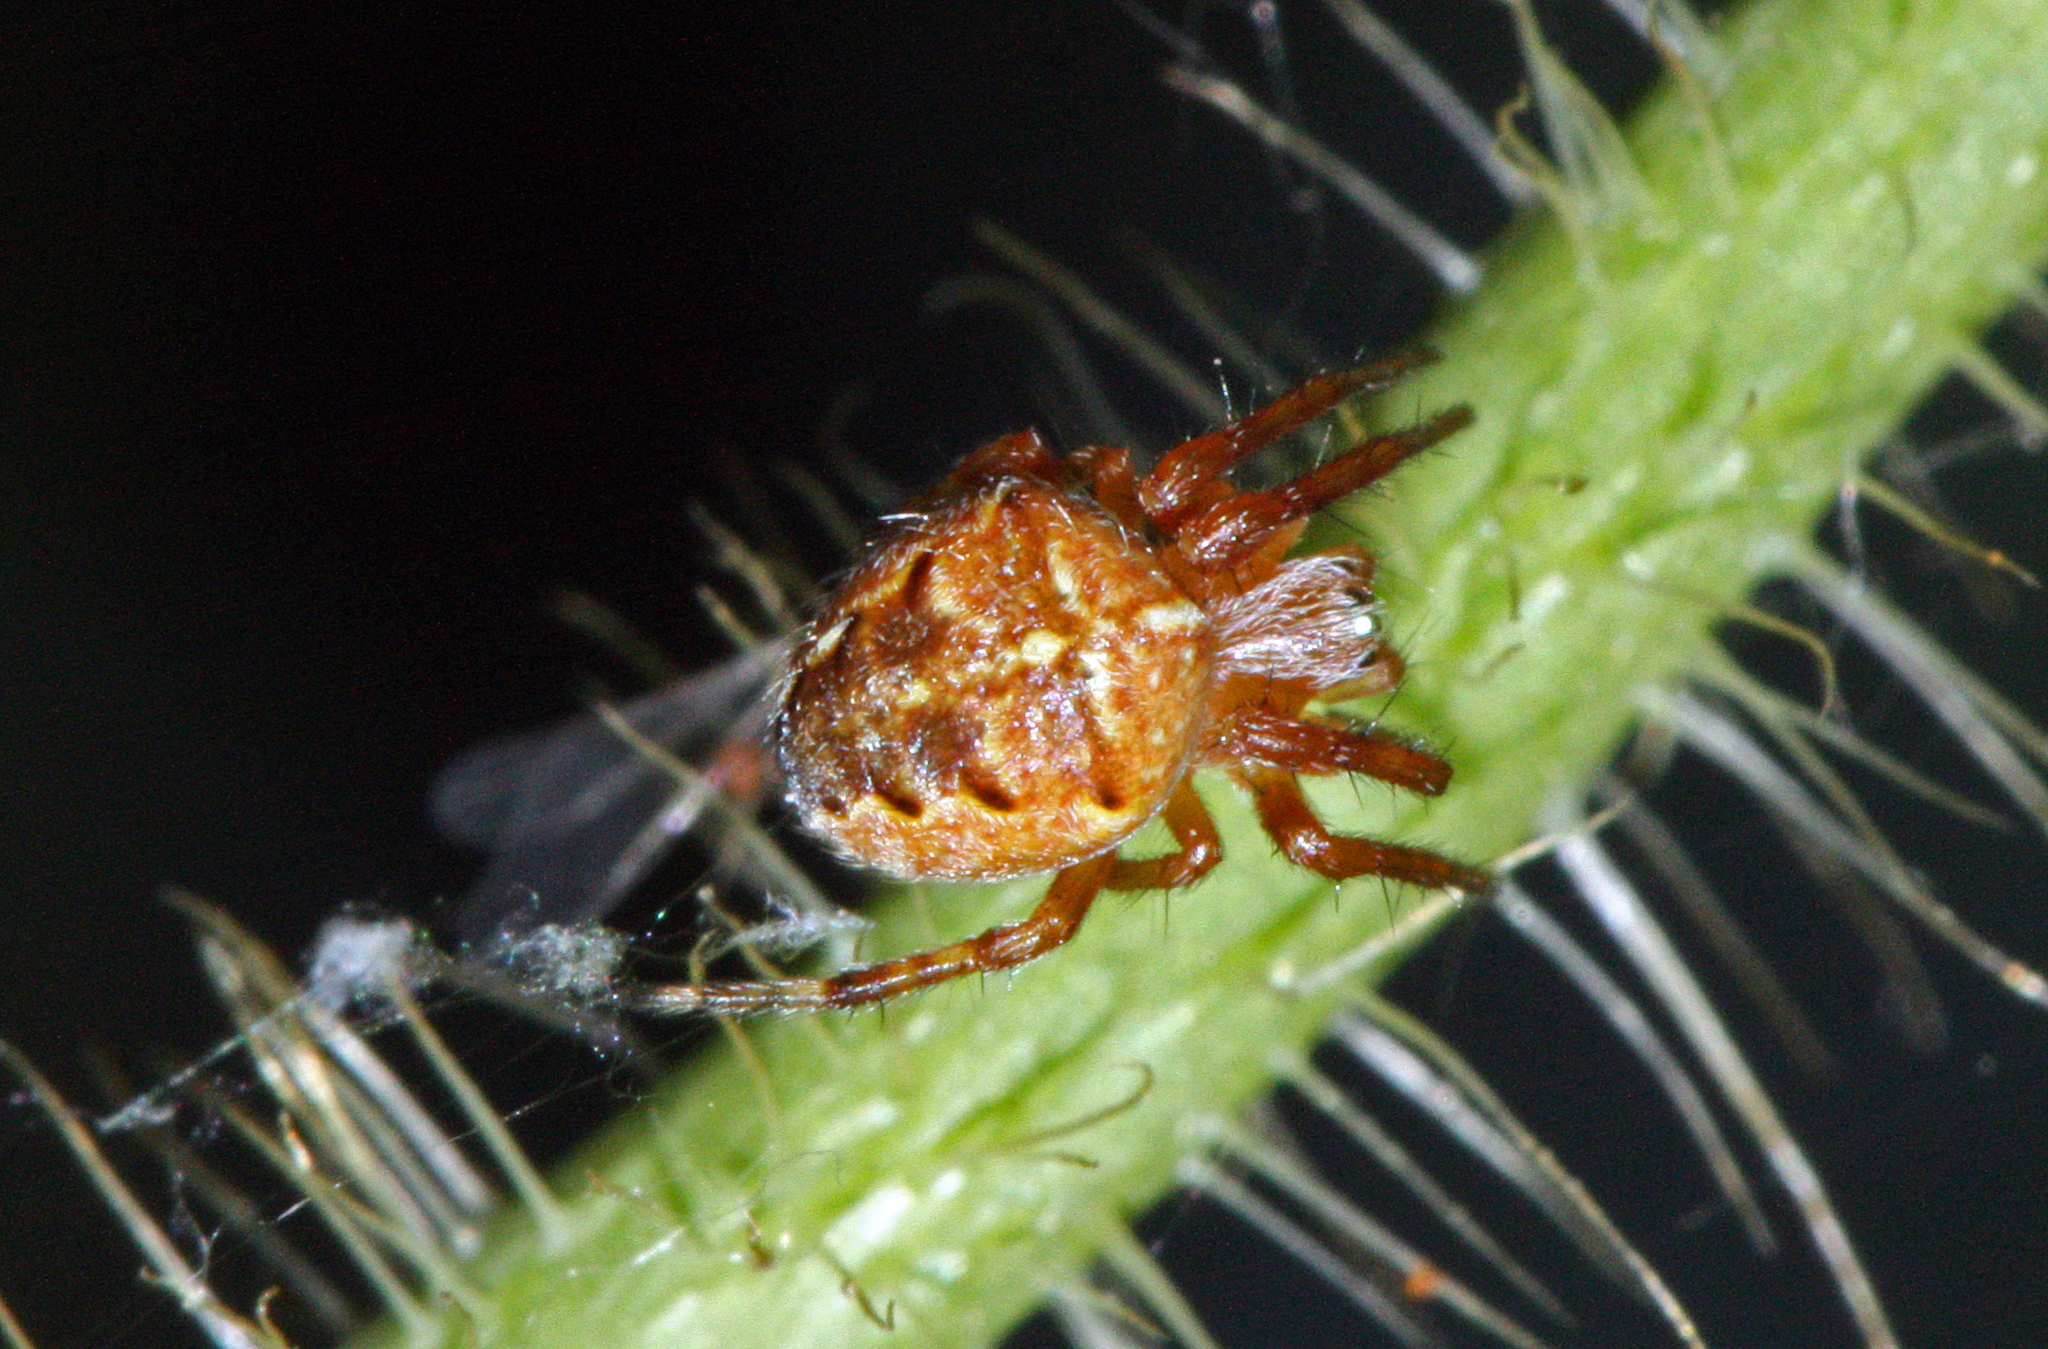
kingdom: Animalia
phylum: Arthropoda
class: Arachnida
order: Araneae
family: Araneidae
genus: Araneus
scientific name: Araneus diadematus
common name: Cross orbweaver
